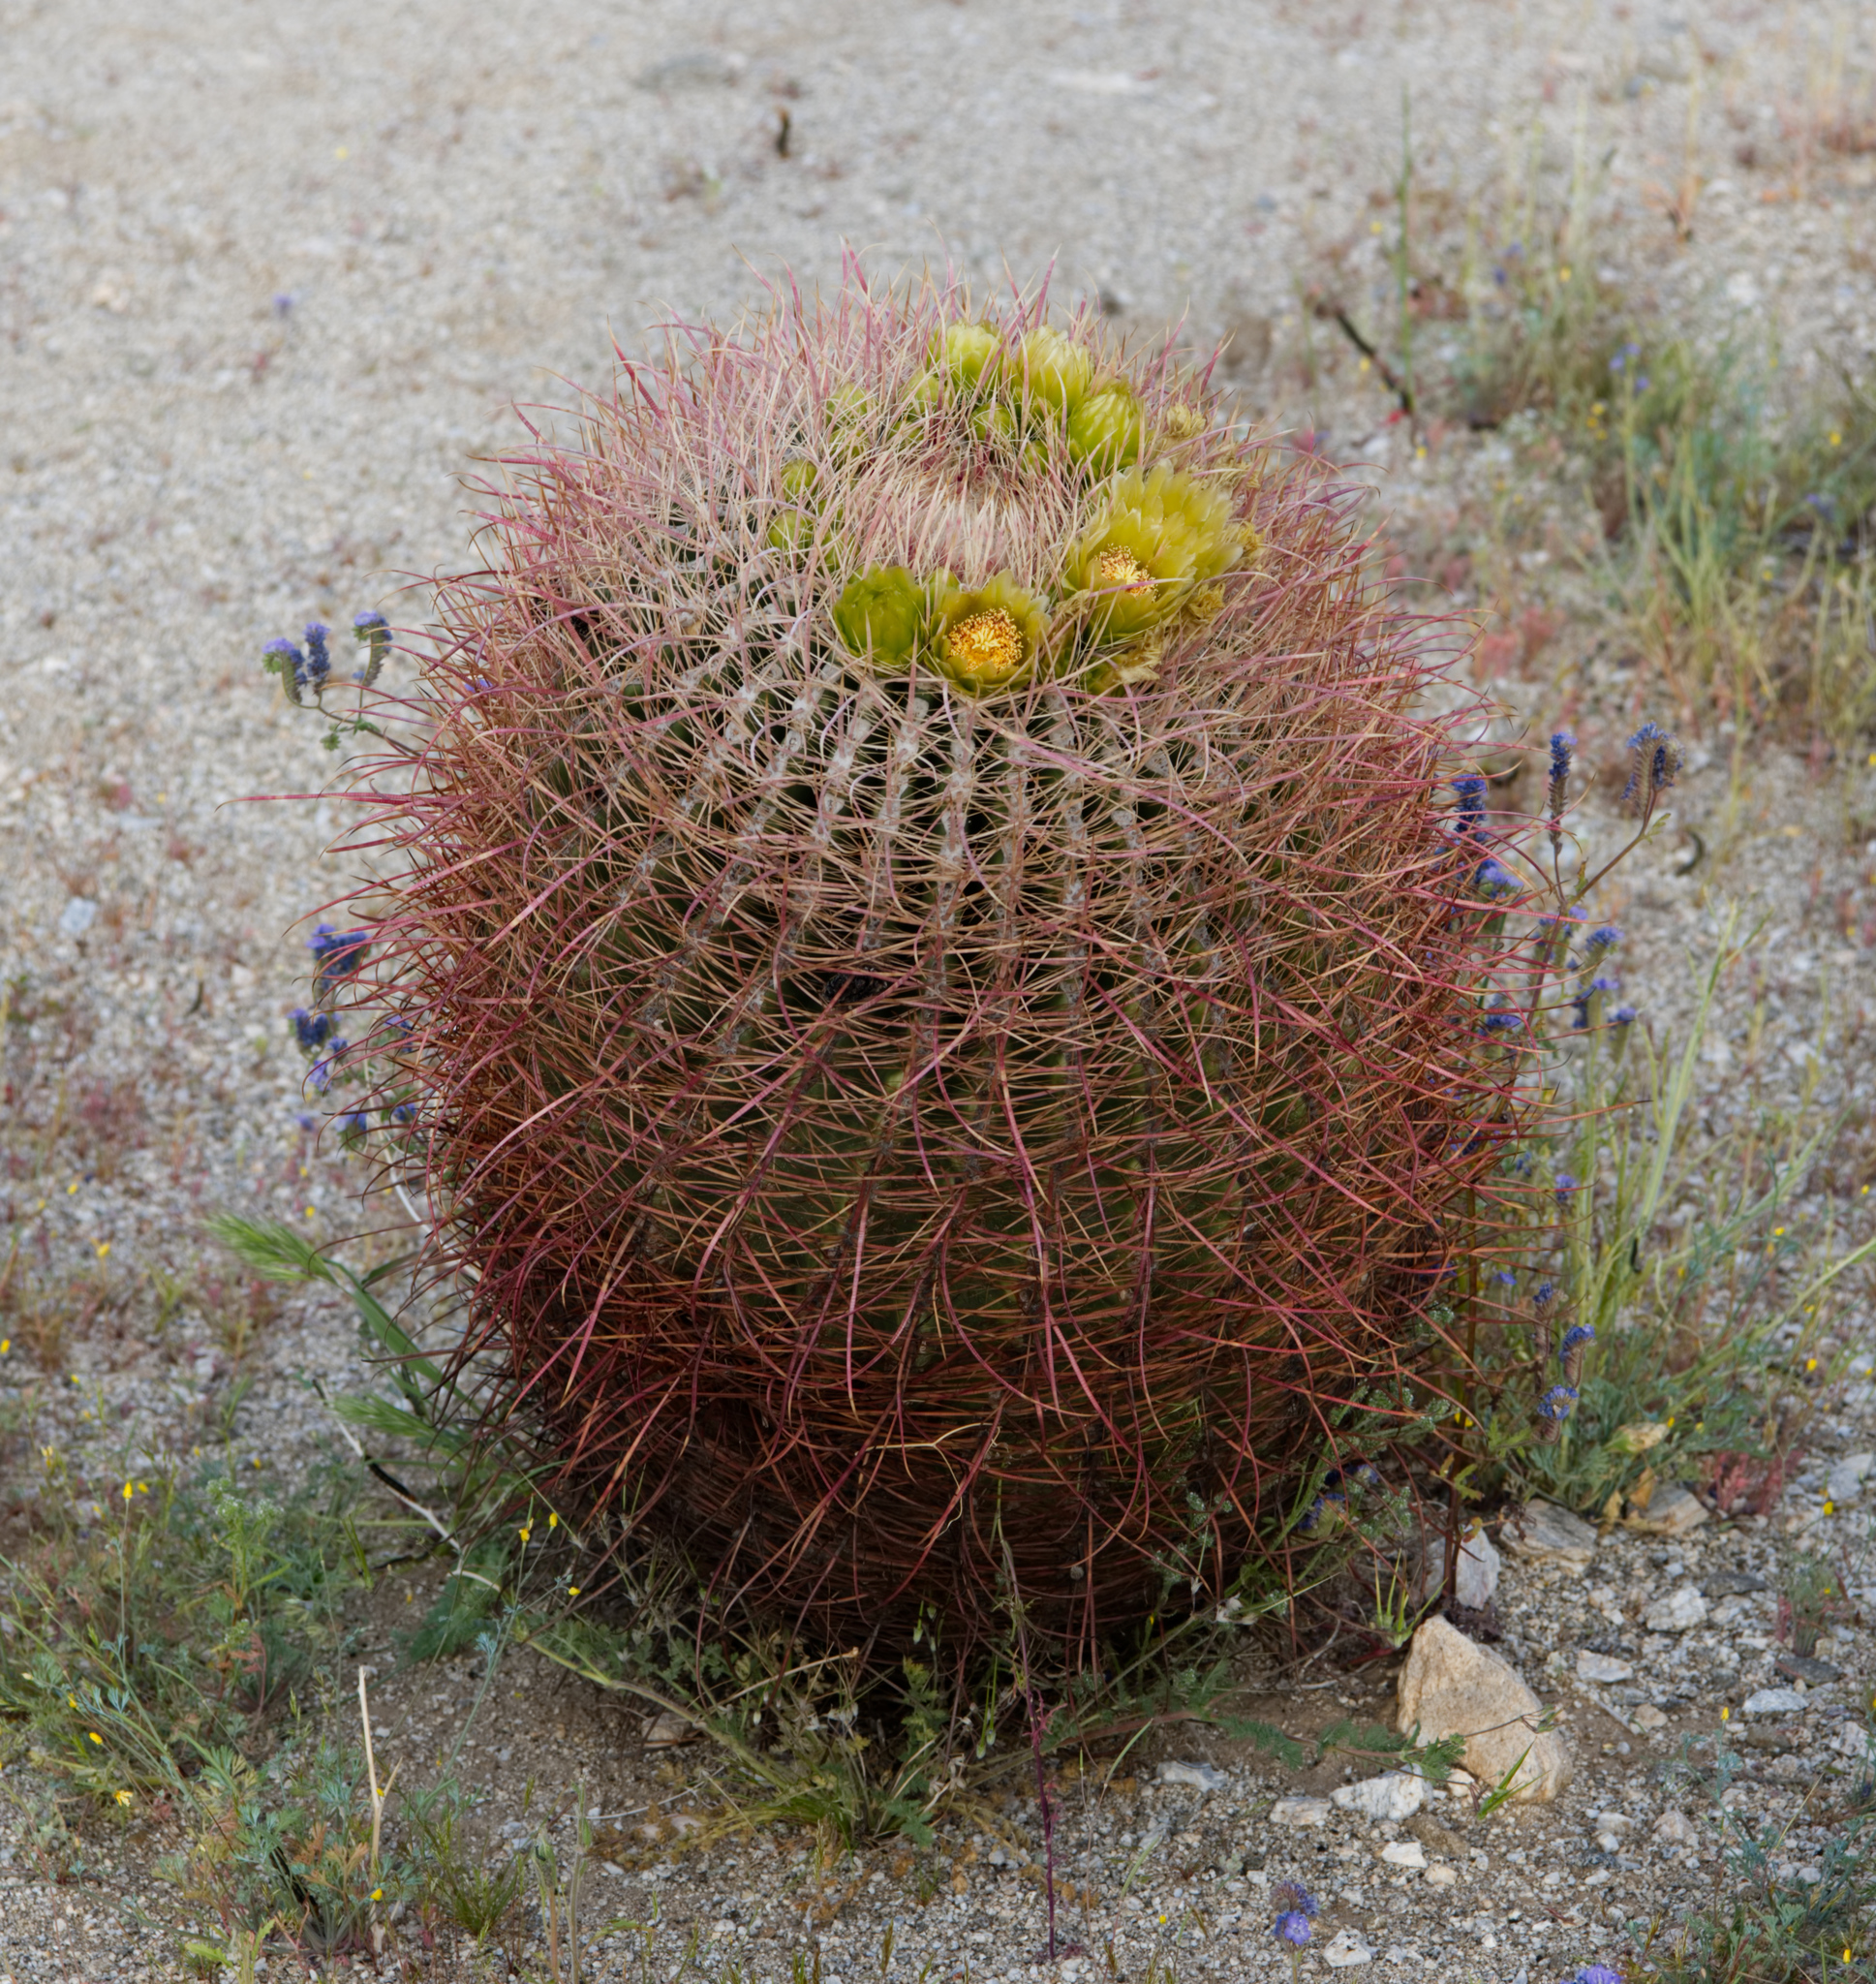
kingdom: Plantae
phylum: Tracheophyta
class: Magnoliopsida
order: Caryophyllales
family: Cactaceae
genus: Ferocactus
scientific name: Ferocactus cylindraceus
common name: California barrel cactus
